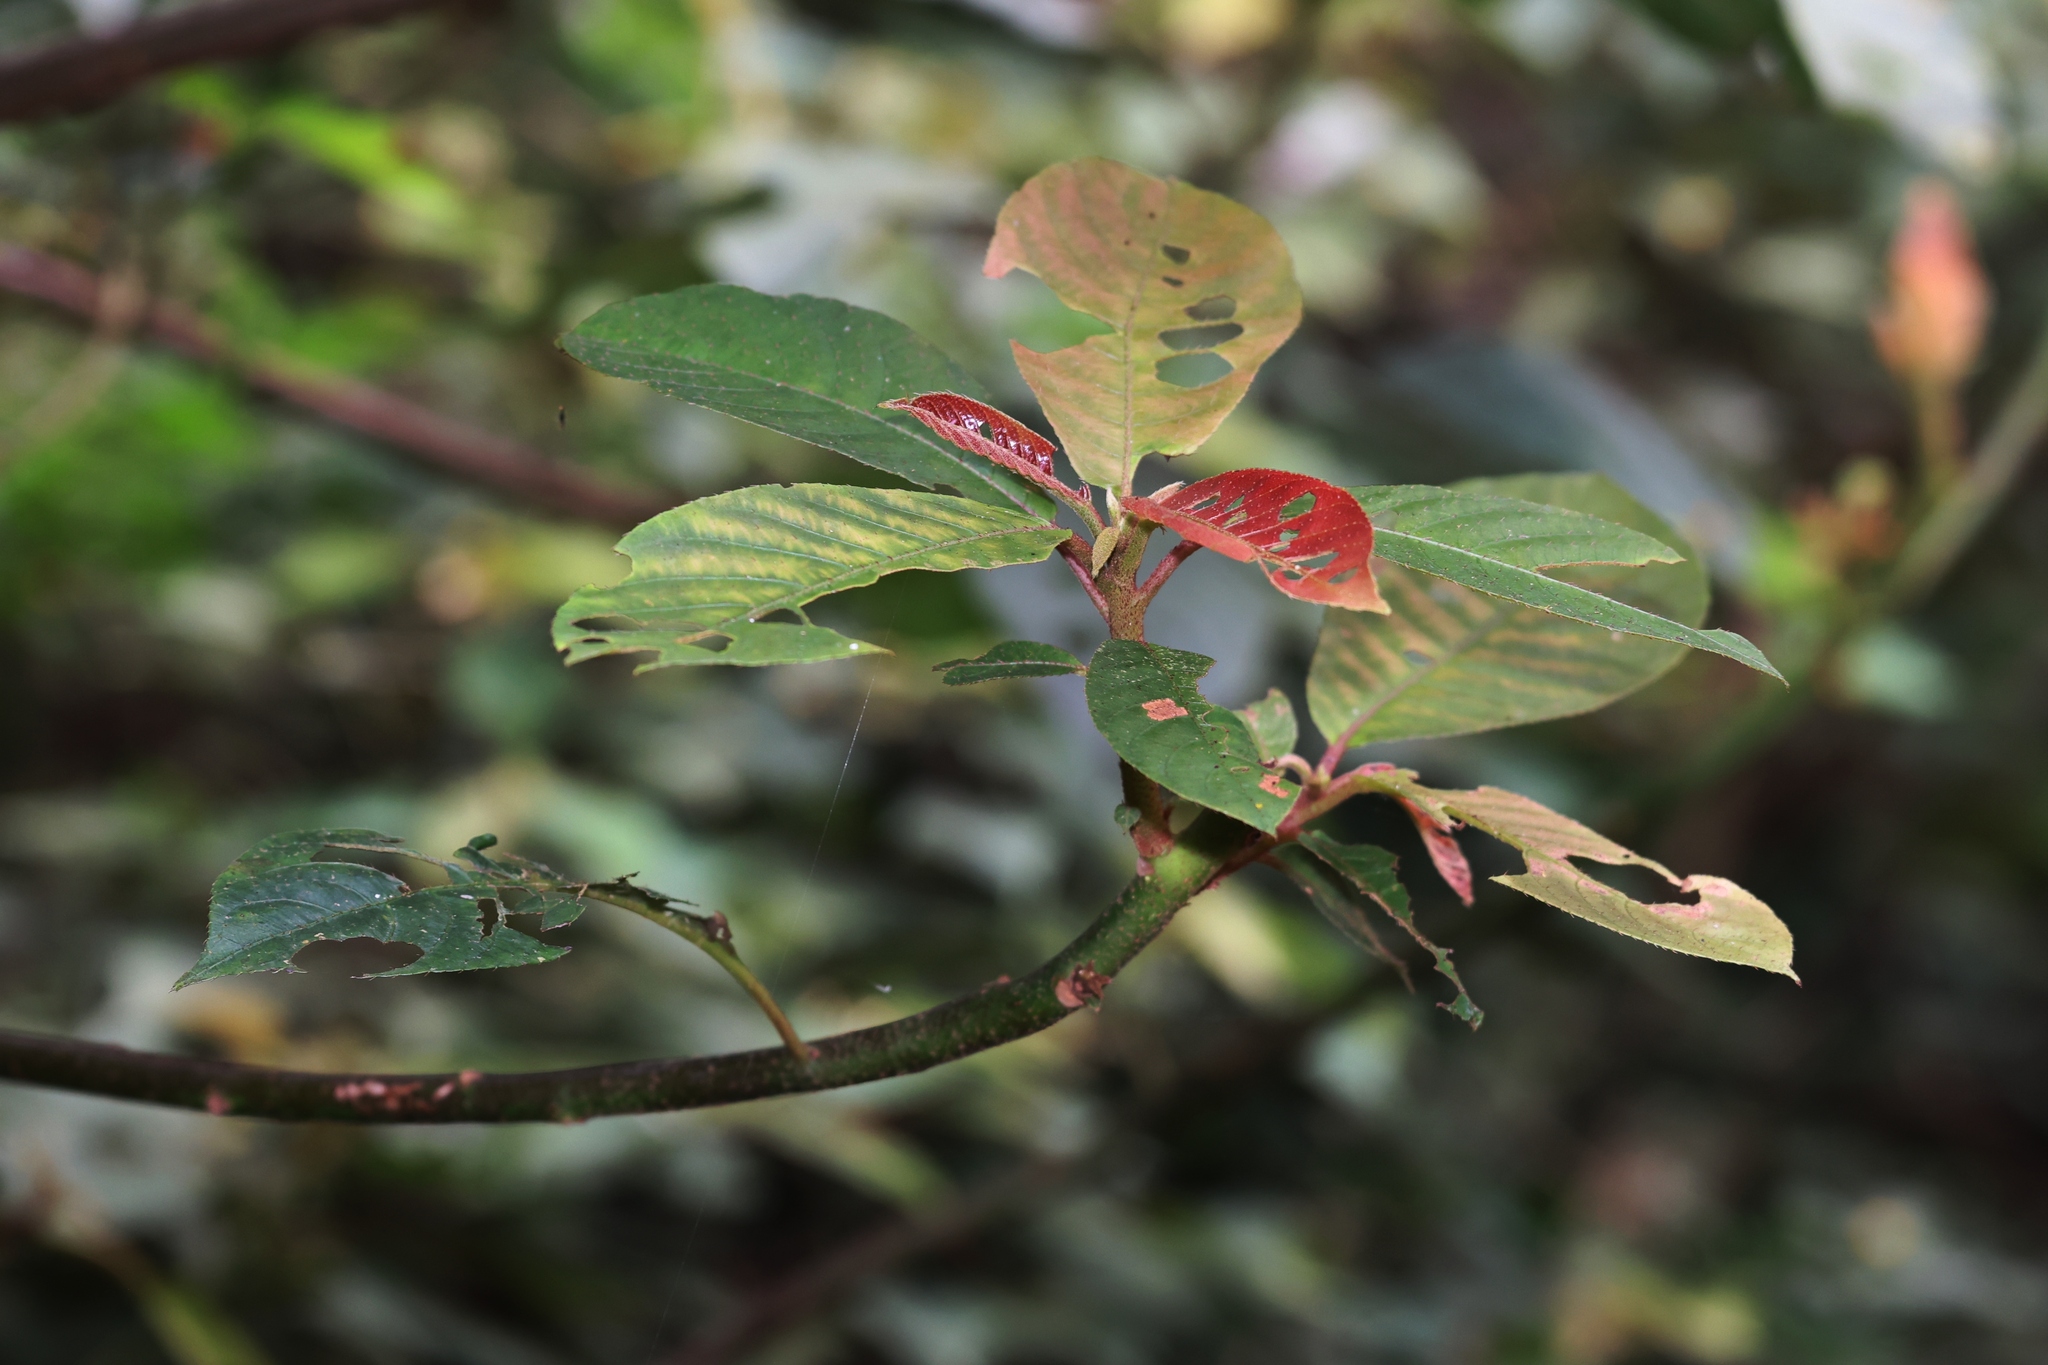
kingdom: Plantae
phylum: Tracheophyta
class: Magnoliopsida
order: Ericales
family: Actinidiaceae
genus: Saurauia
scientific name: Saurauia tristyla
